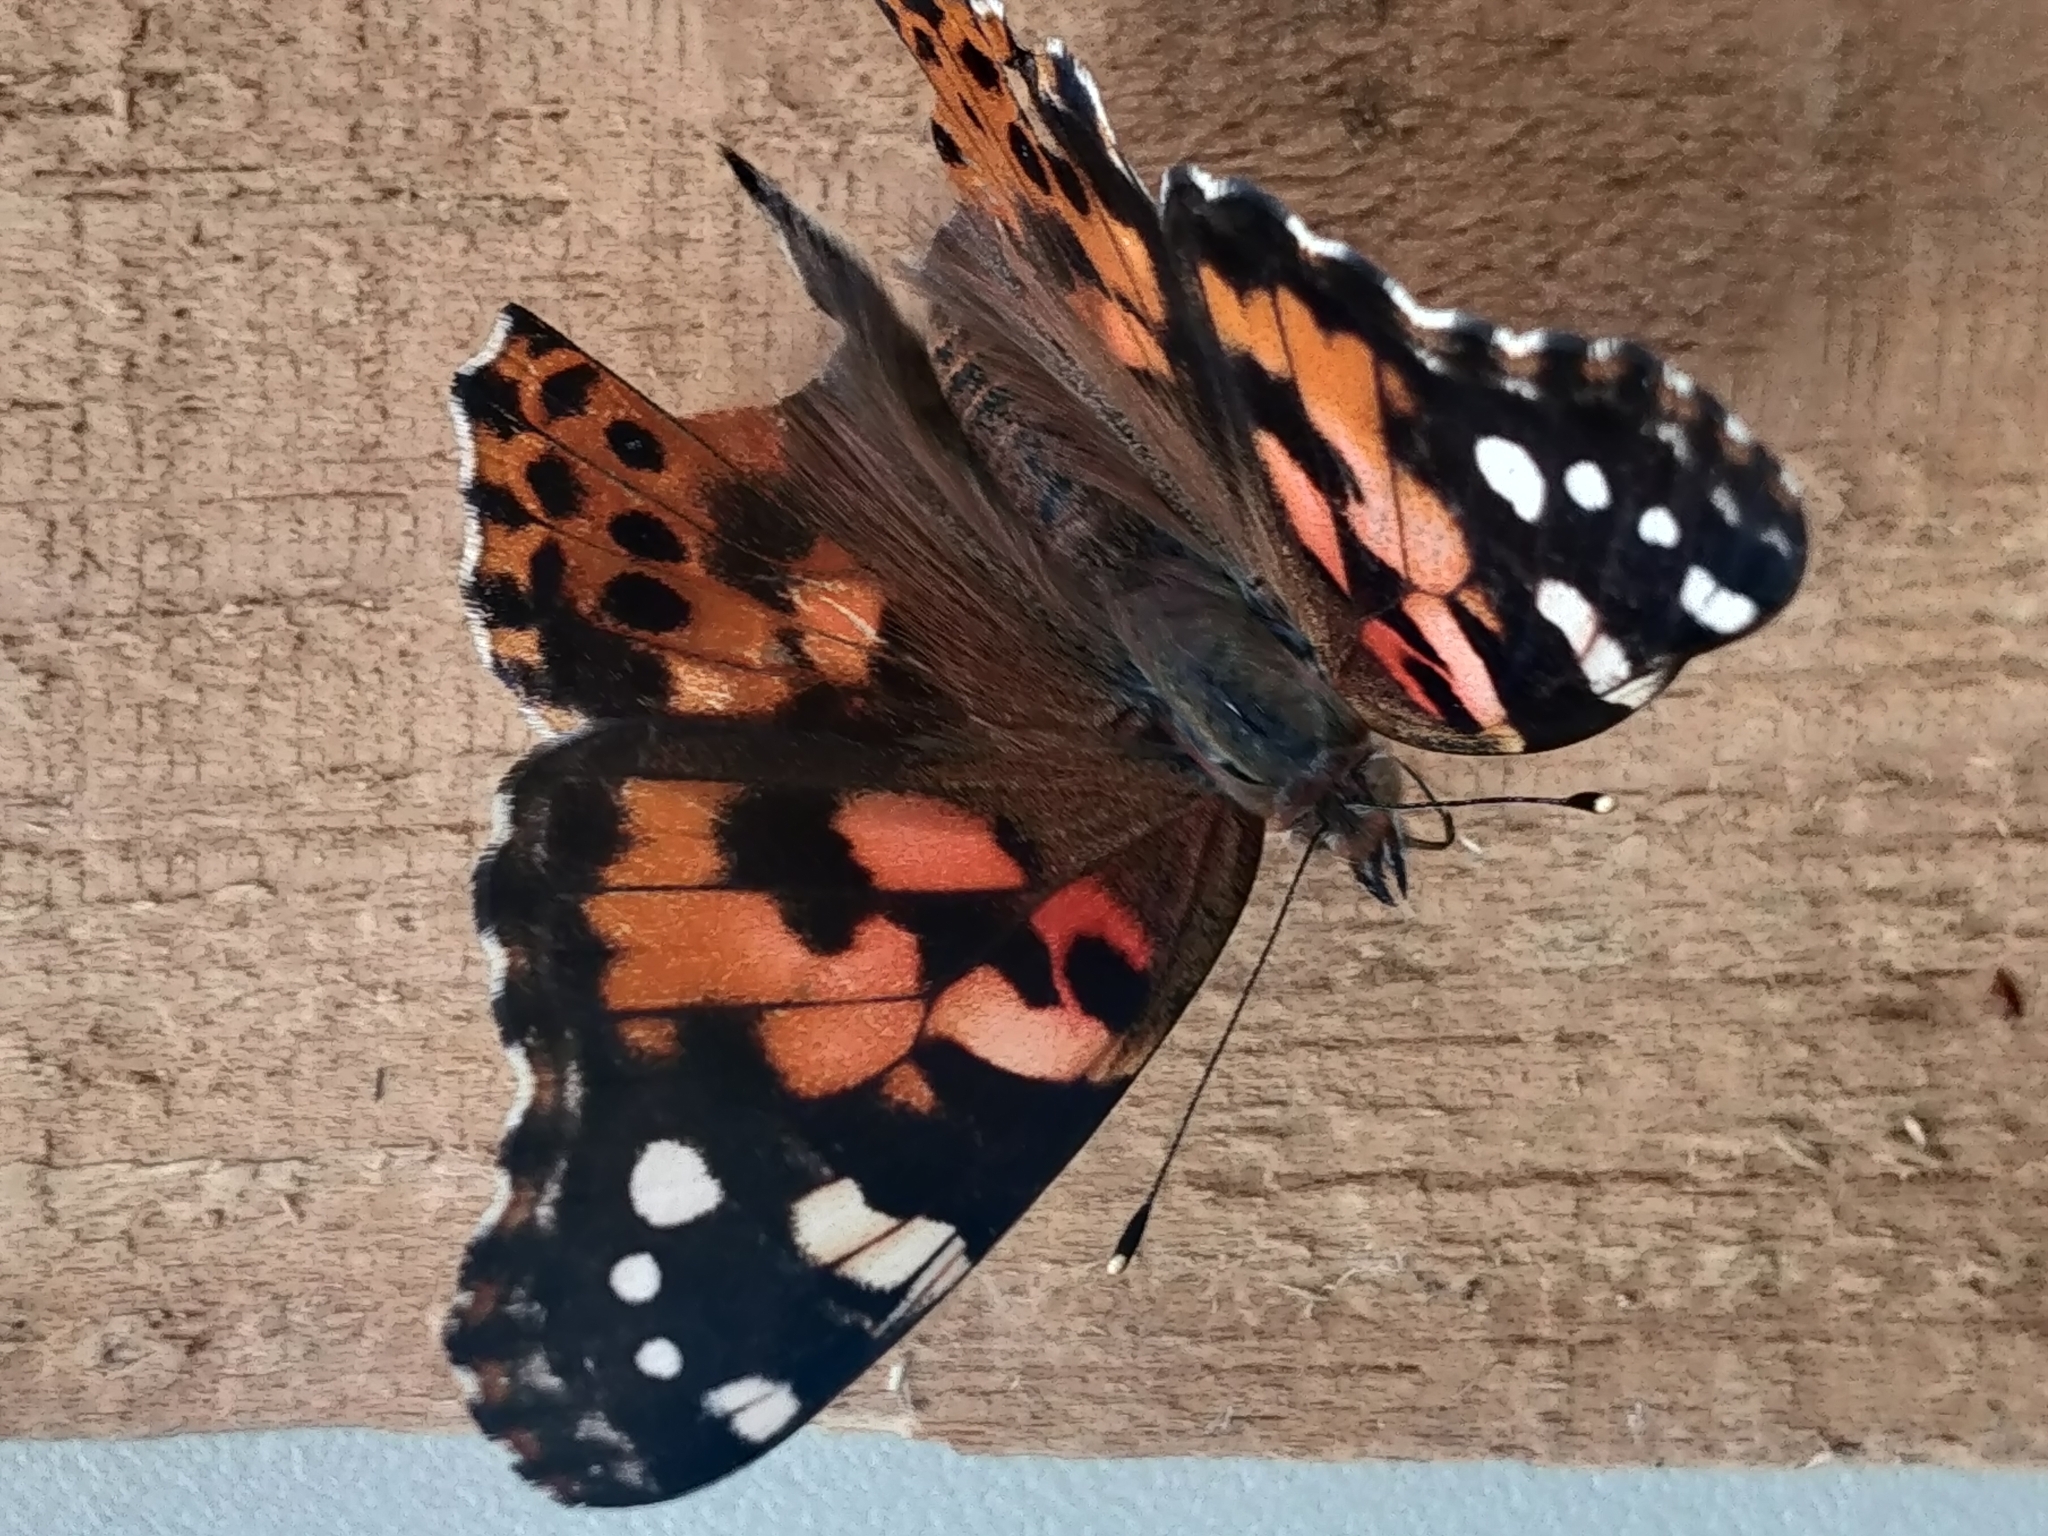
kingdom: Animalia
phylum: Arthropoda
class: Insecta
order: Lepidoptera
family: Nymphalidae
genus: Vanessa
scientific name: Vanessa cardui
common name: Painted lady
